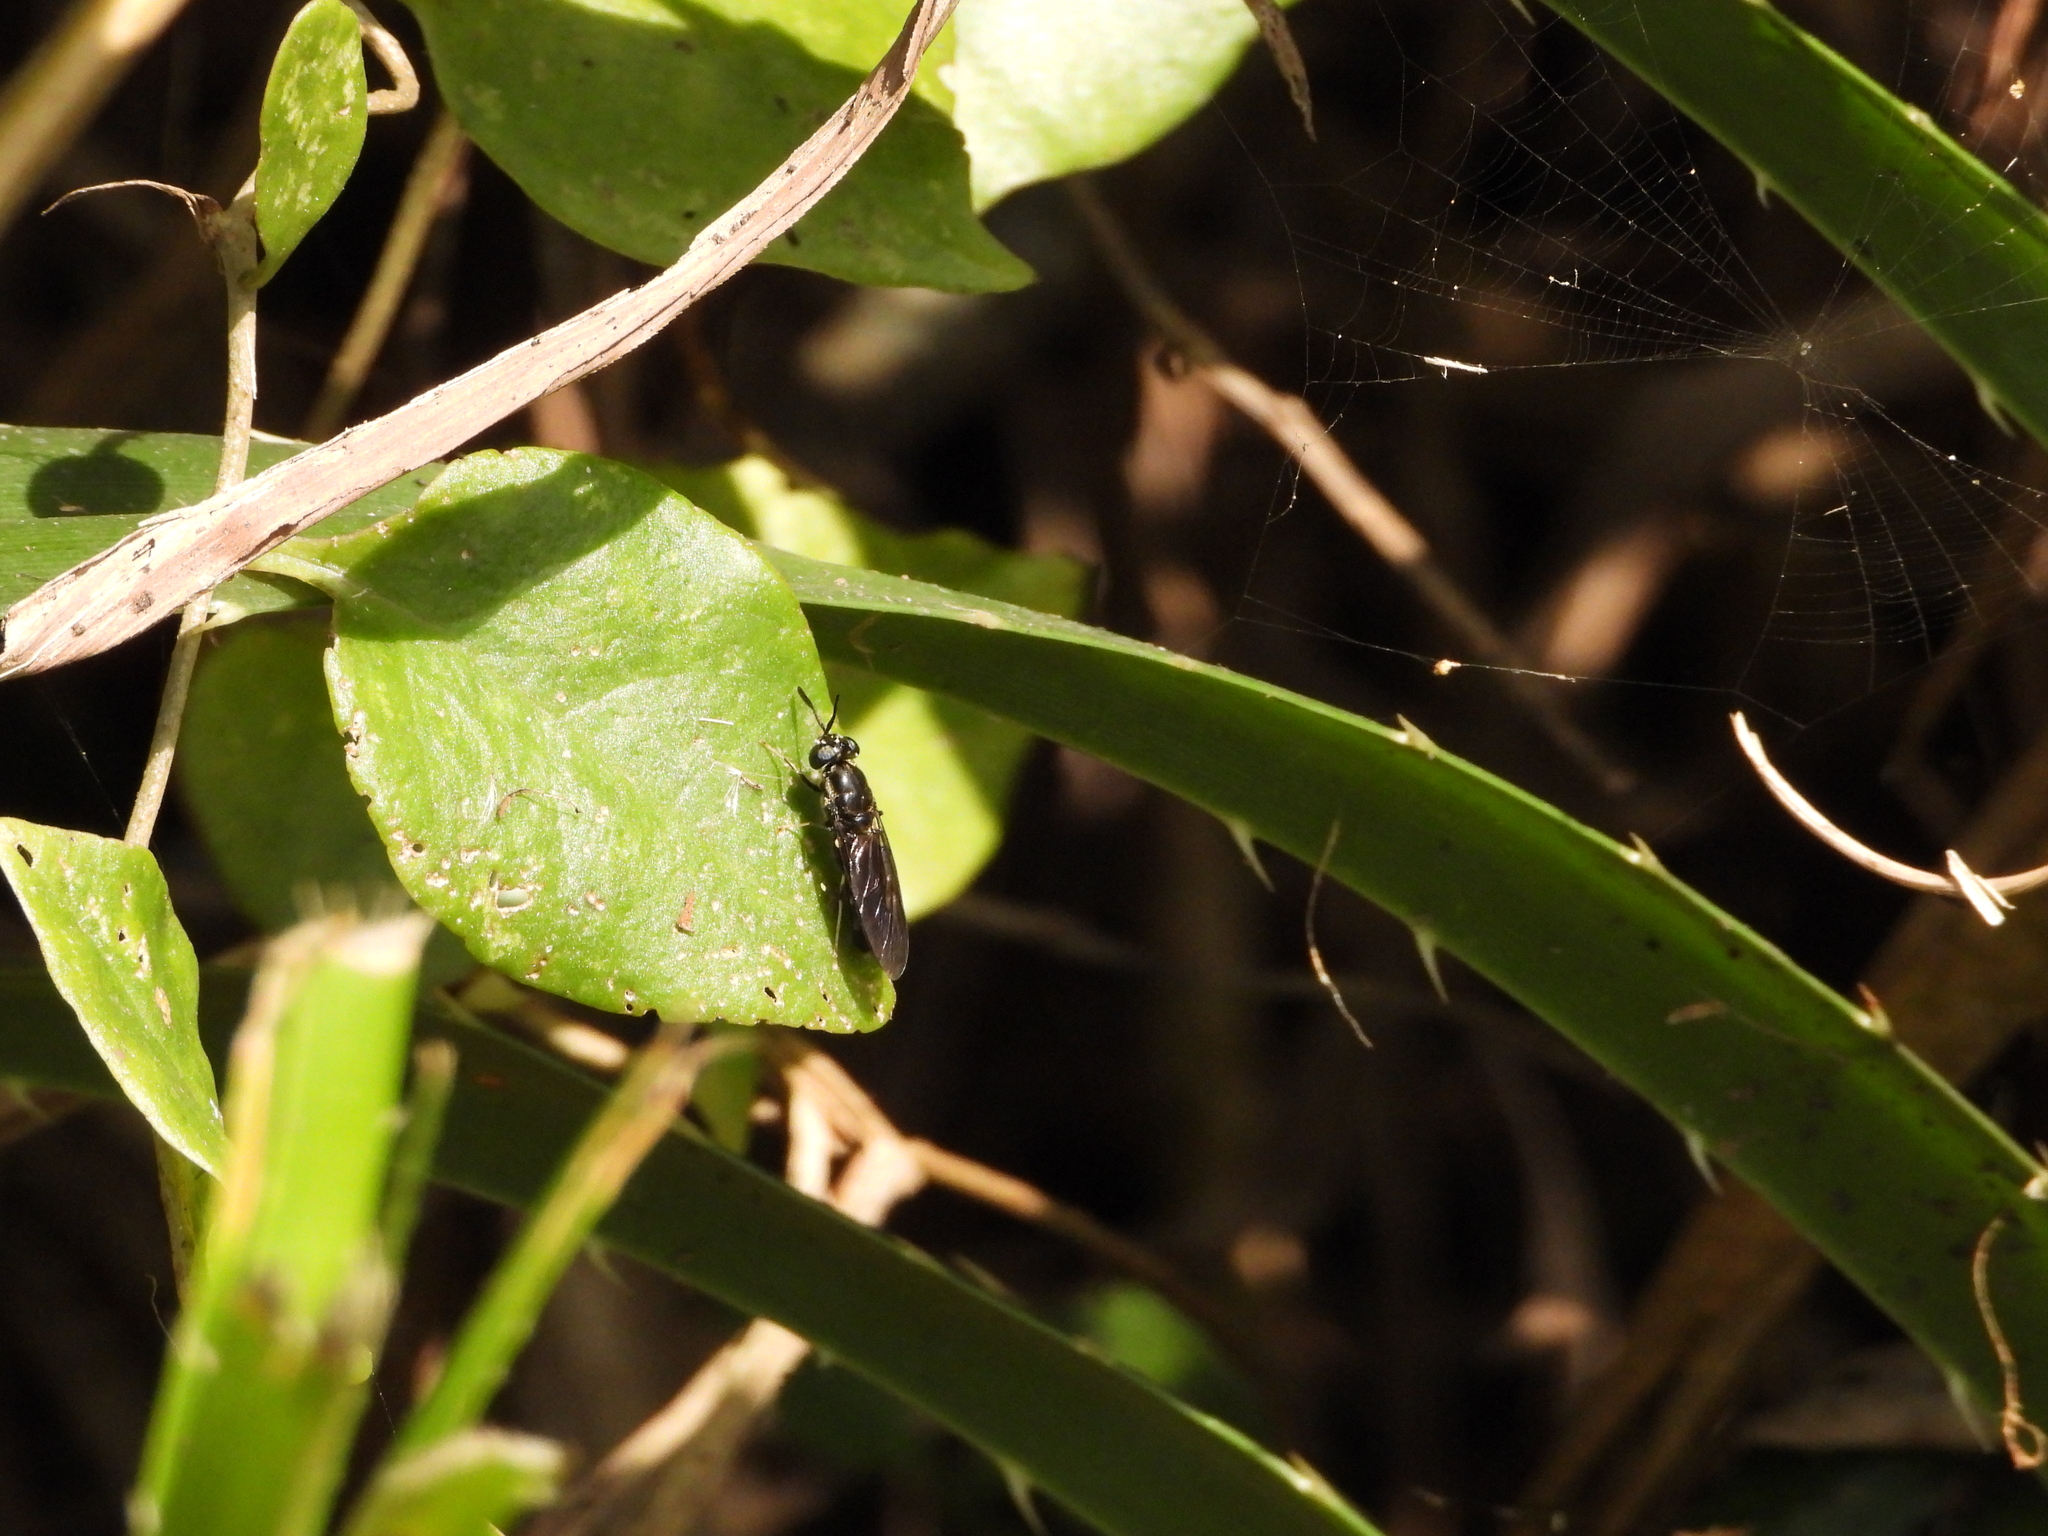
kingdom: Animalia
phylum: Arthropoda
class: Insecta
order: Diptera
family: Stratiomyidae
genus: Hermetia
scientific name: Hermetia illucens
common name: Black soldier fly
